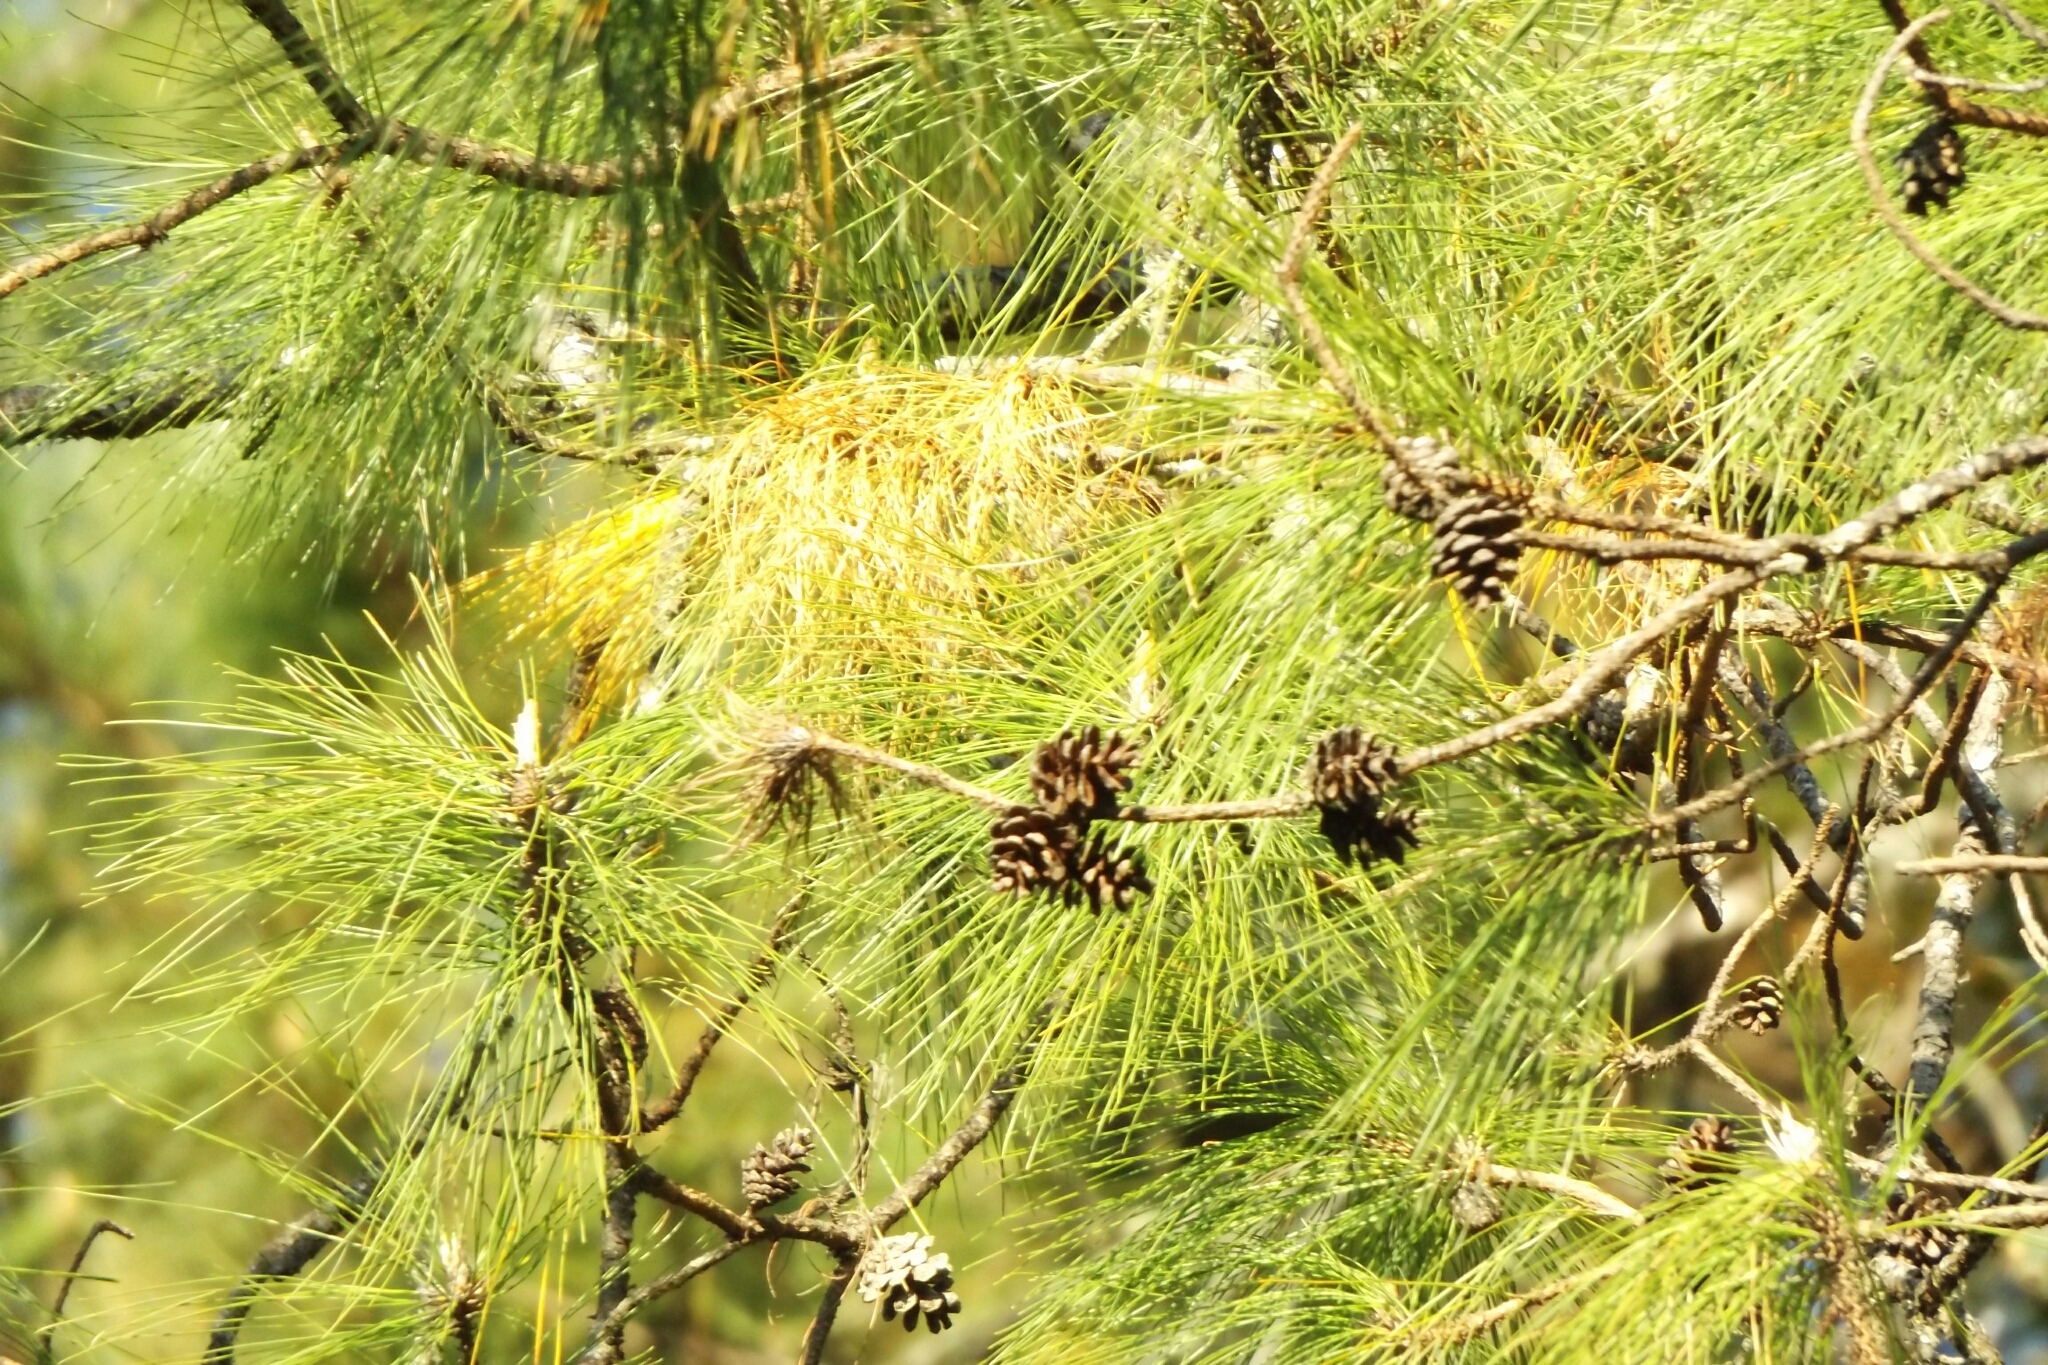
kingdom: Plantae
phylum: Tracheophyta
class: Pinopsida
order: Pinales
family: Pinaceae
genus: Pinus
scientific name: Pinus herrerae
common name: Herrera's pine
